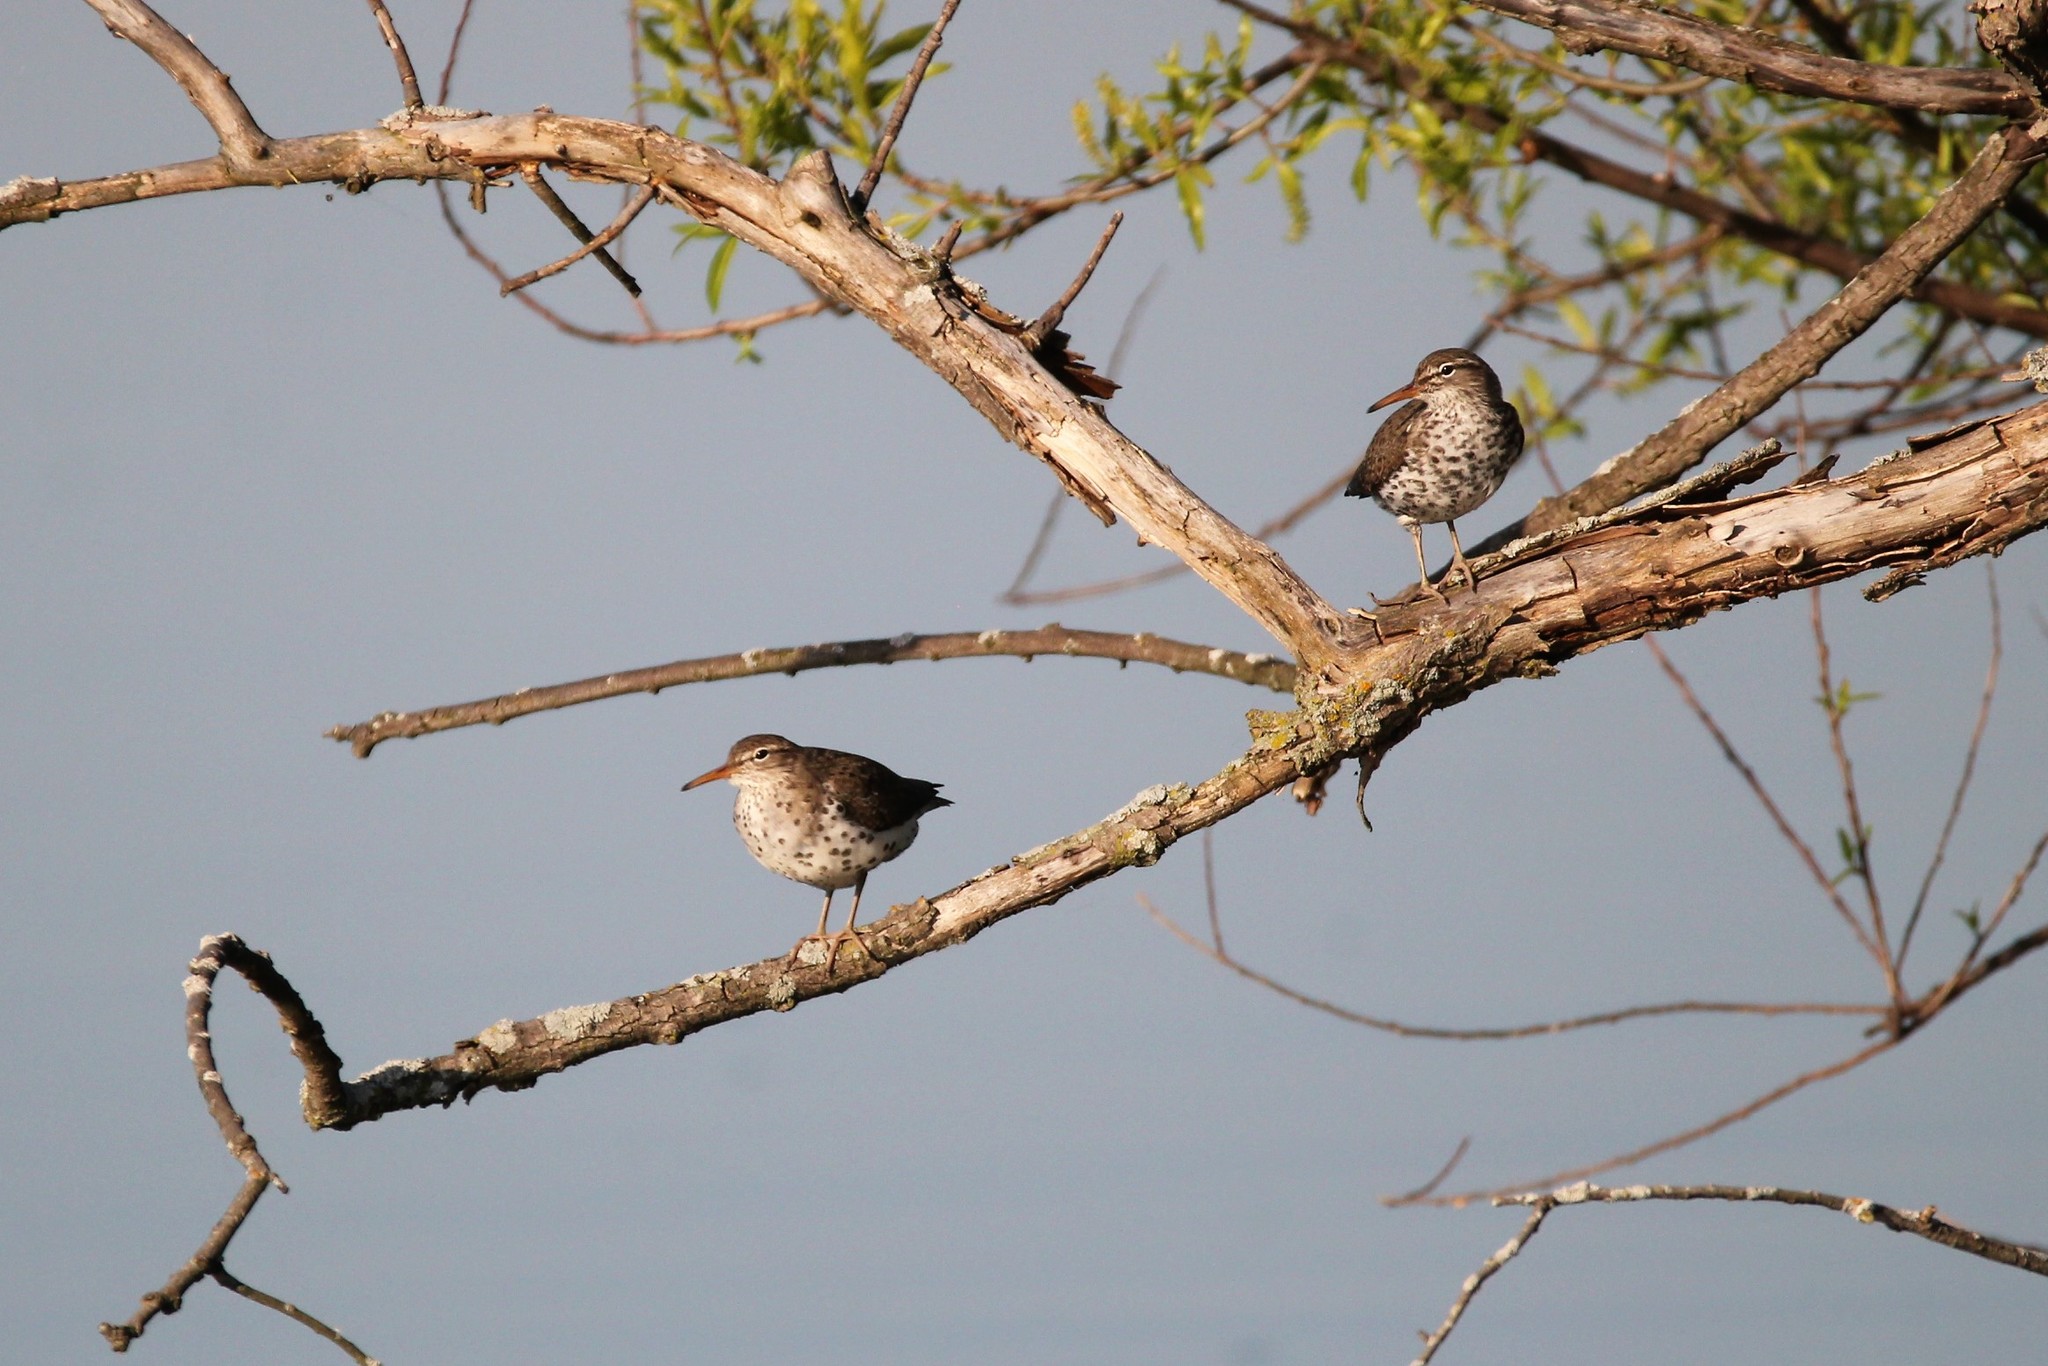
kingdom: Animalia
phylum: Chordata
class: Aves
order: Charadriiformes
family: Scolopacidae
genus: Actitis
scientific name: Actitis macularius
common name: Spotted sandpiper
